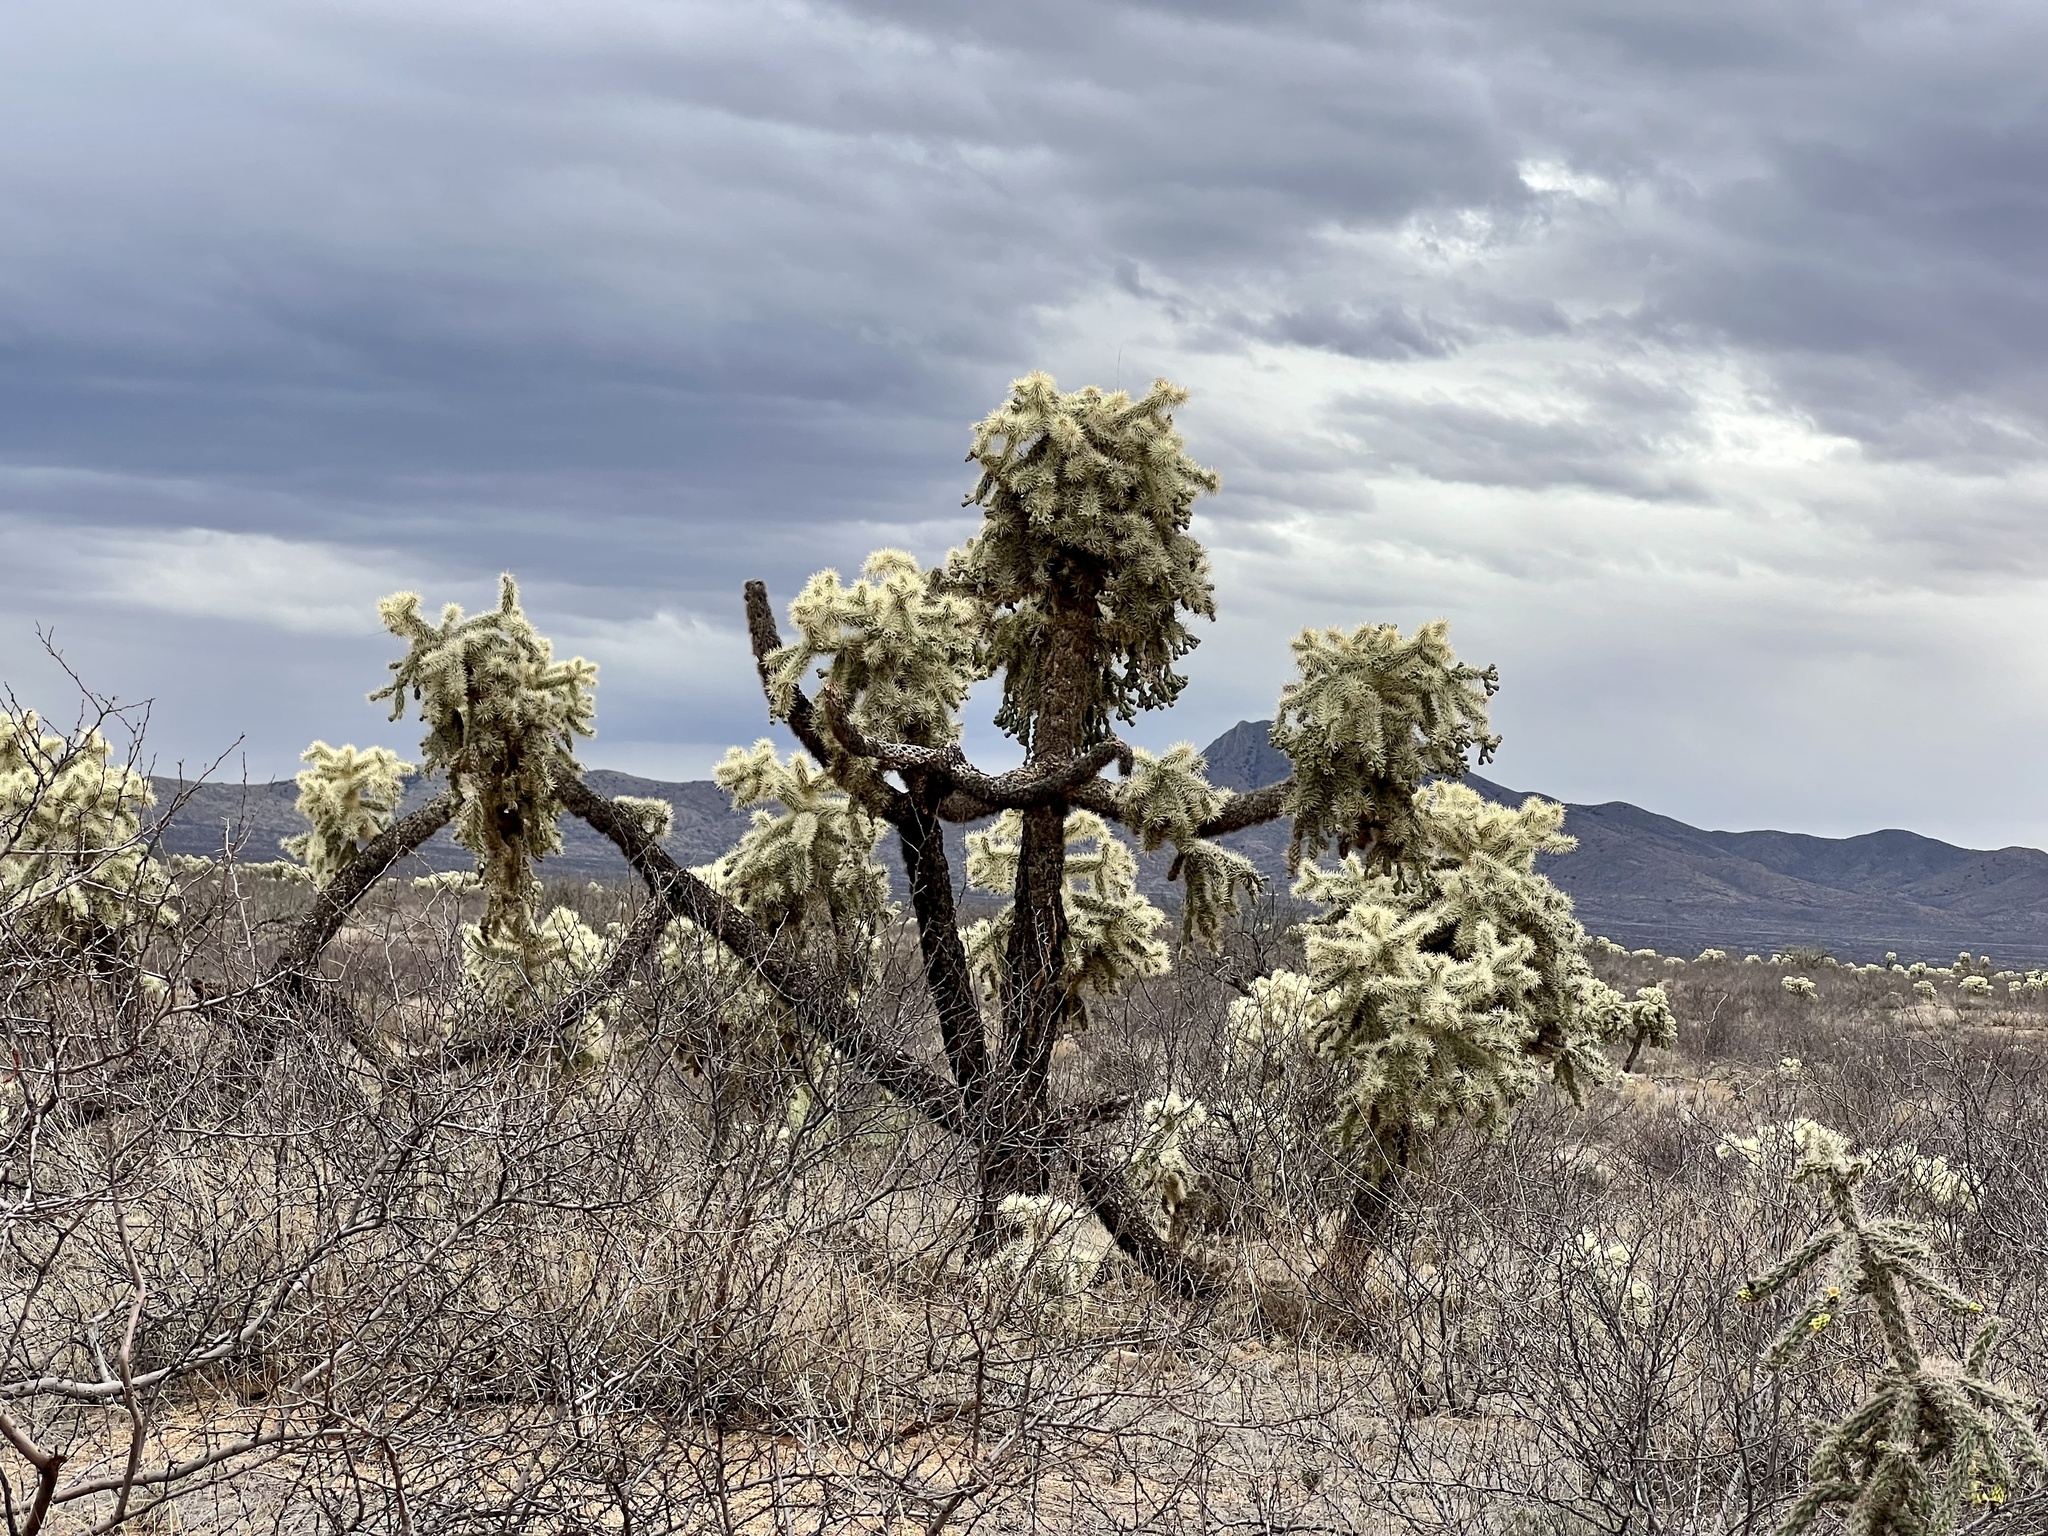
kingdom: Plantae
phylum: Tracheophyta
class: Magnoliopsida
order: Caryophyllales
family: Cactaceae
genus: Cylindropuntia
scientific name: Cylindropuntia fulgida
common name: Jumping cholla
